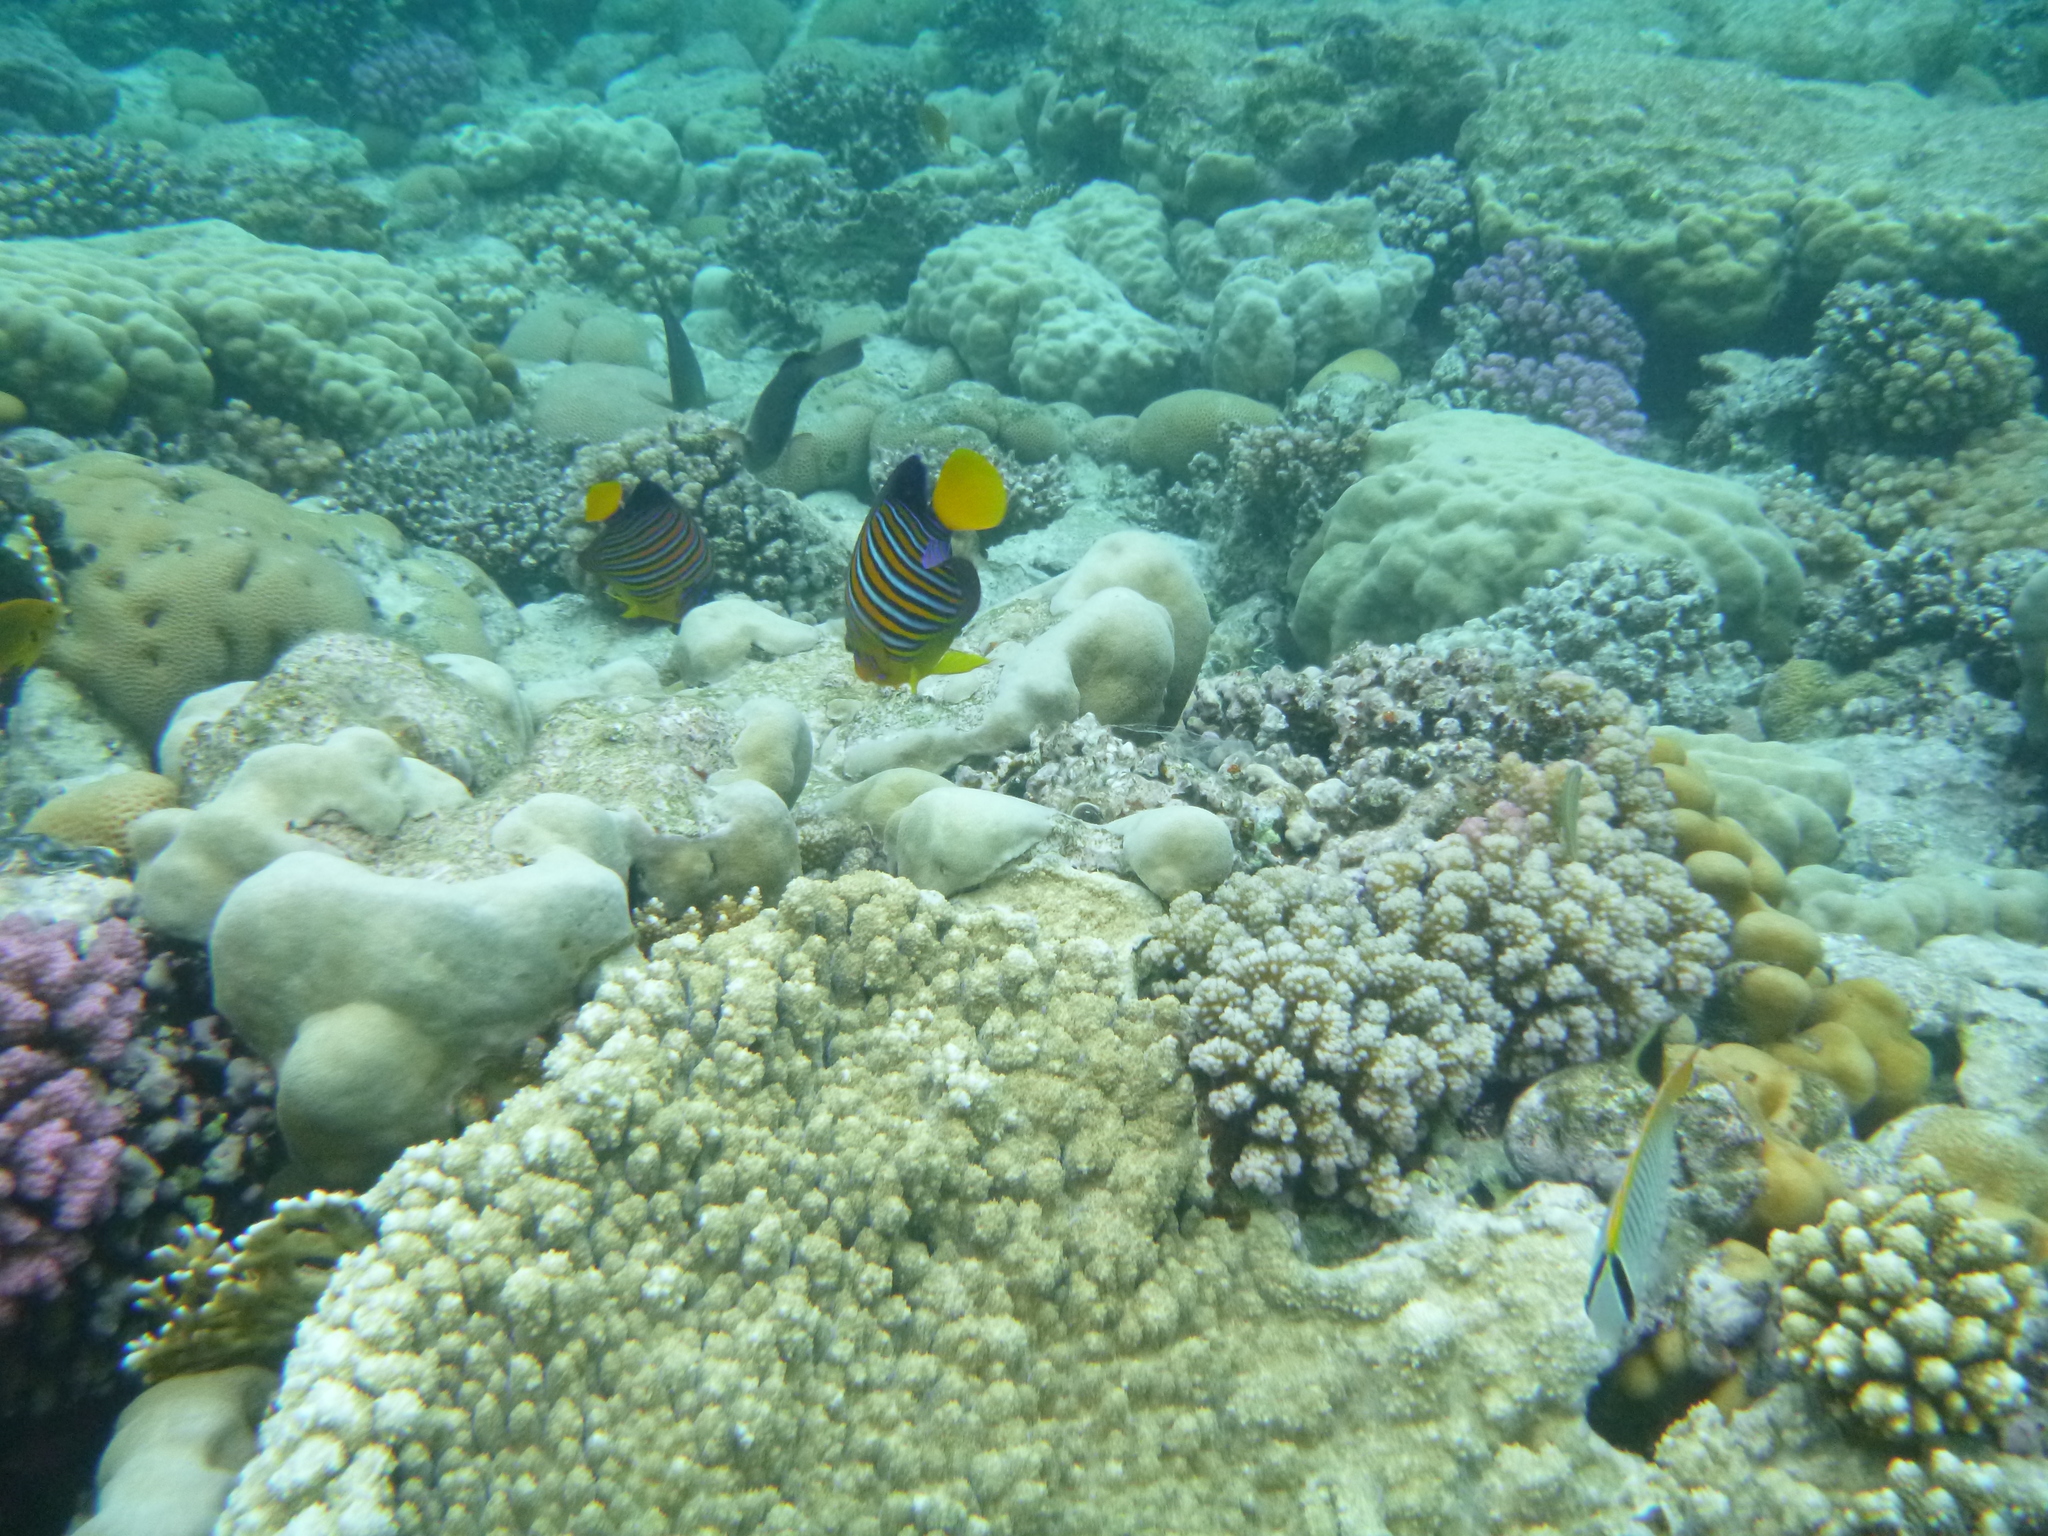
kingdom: Animalia
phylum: Chordata
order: Perciformes
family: Pomacanthidae
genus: Pygoplites
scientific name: Pygoplites diacanthus
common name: Regal angelfish
